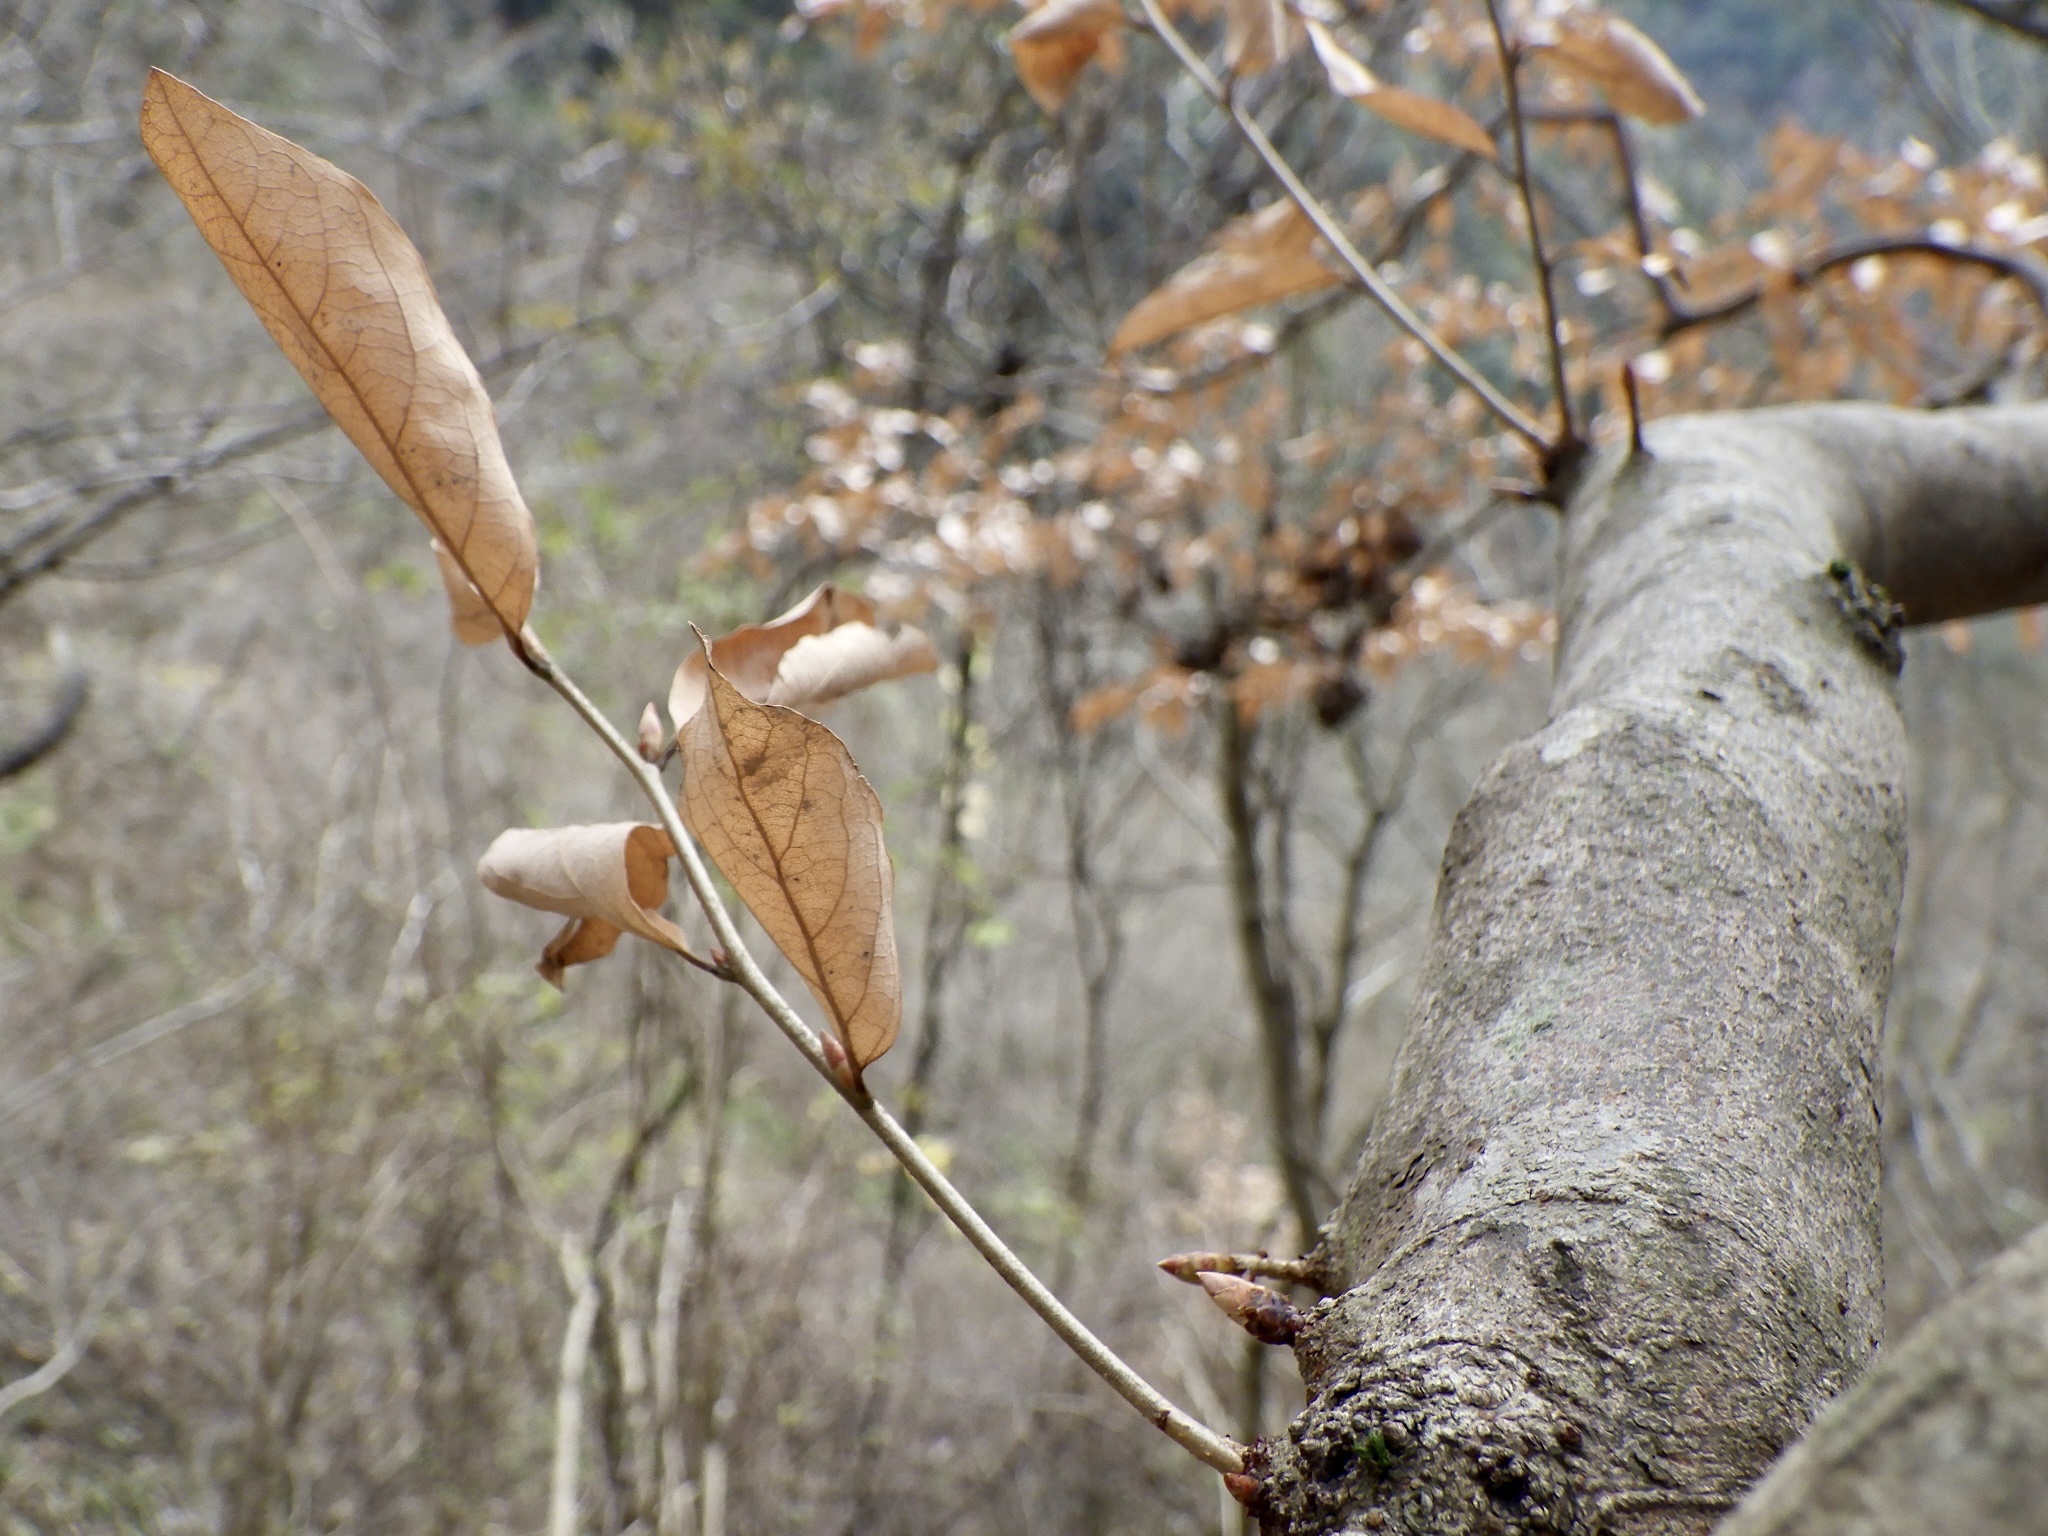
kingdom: Plantae
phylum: Tracheophyta
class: Magnoliopsida
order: Laurales
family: Lauraceae
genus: Lindera
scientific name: Lindera glauca
